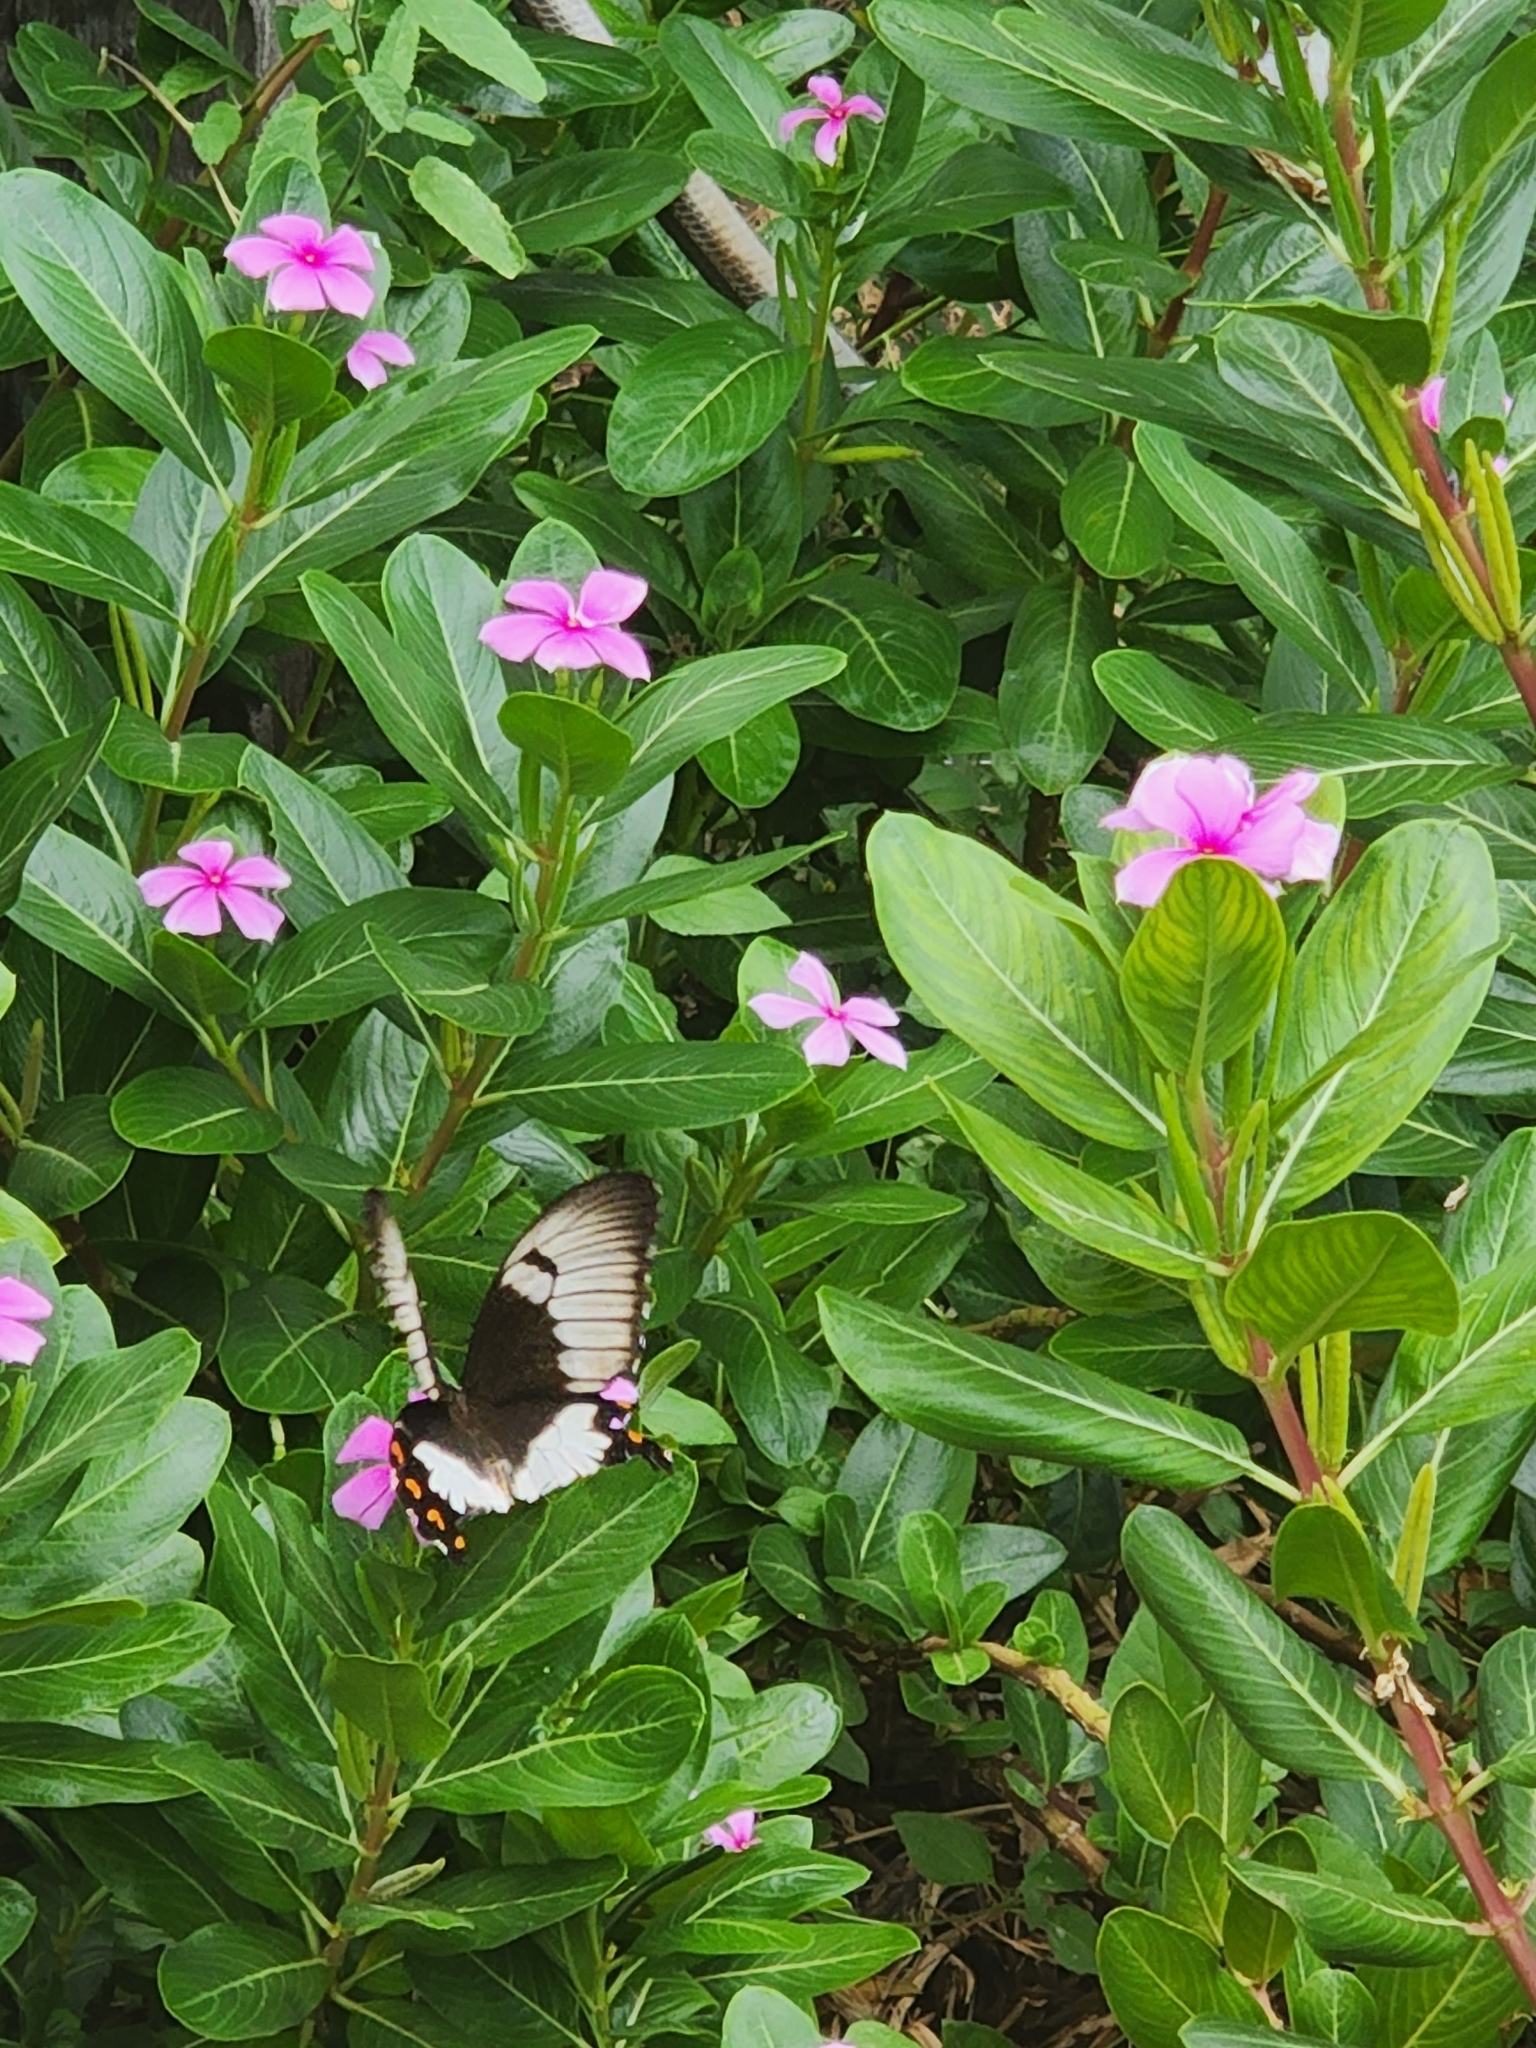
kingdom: Animalia
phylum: Arthropoda
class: Insecta
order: Lepidoptera
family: Papilionidae
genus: Papilio
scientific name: Papilio aegeus
